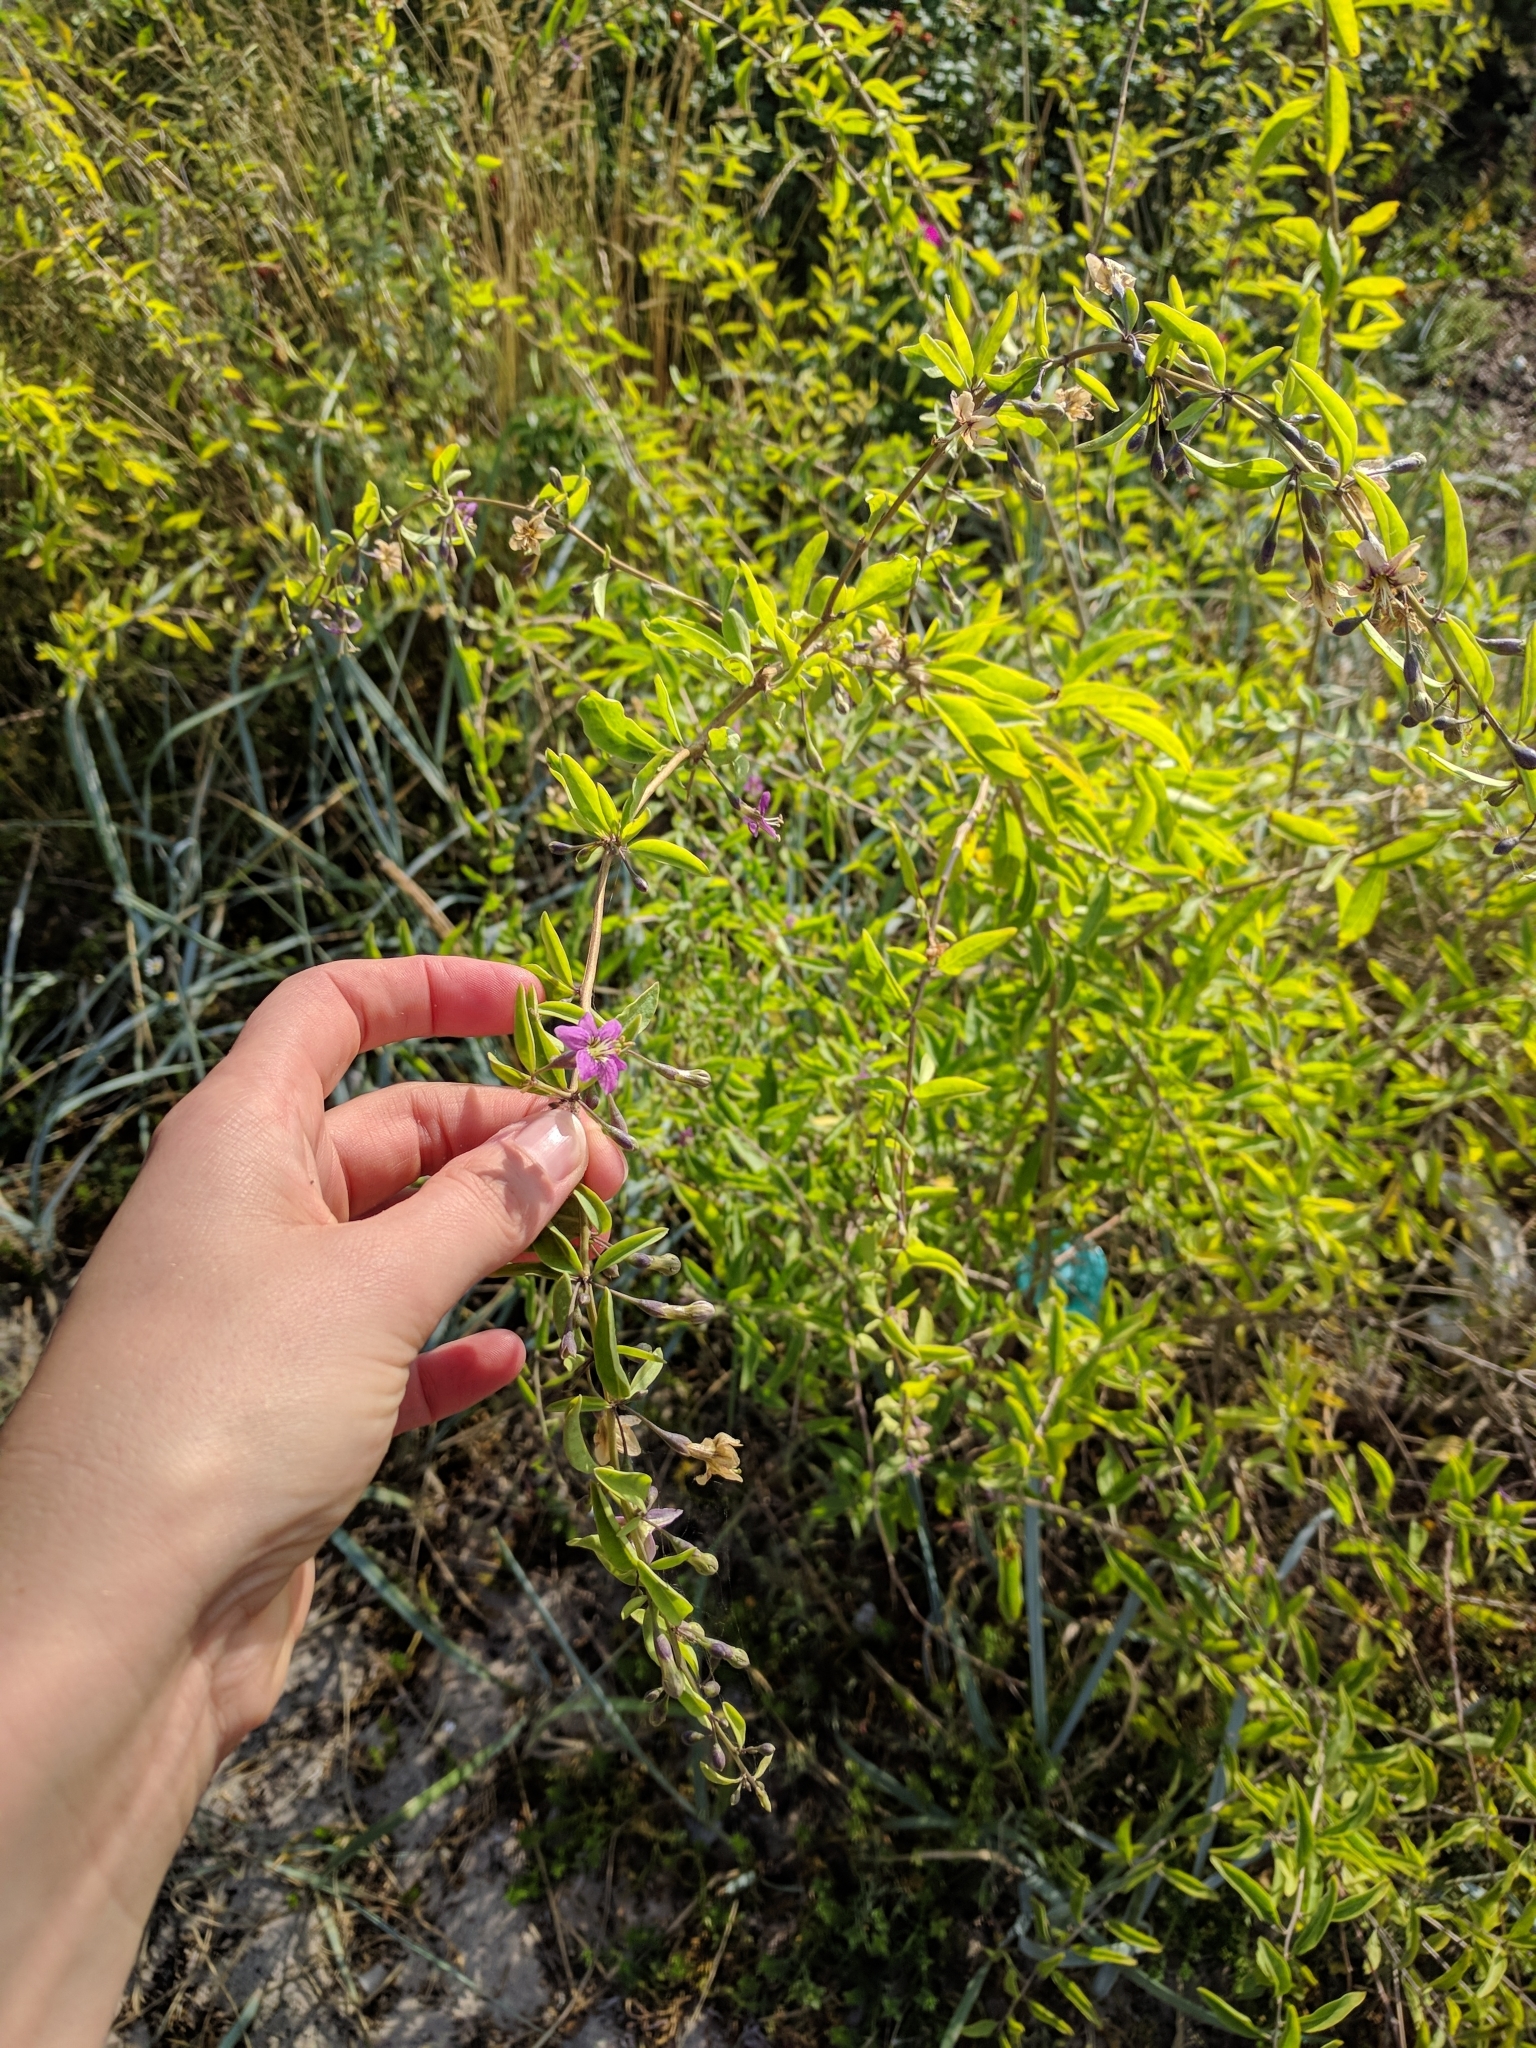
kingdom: Plantae
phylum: Tracheophyta
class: Magnoliopsida
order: Solanales
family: Solanaceae
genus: Lycium
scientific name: Lycium barbarum
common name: Duke of argyll's teaplant
